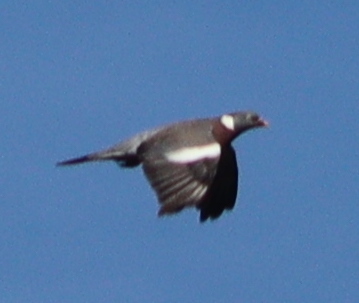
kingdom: Animalia
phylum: Chordata
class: Aves
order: Columbiformes
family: Columbidae
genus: Columba
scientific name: Columba palumbus
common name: Common wood pigeon
